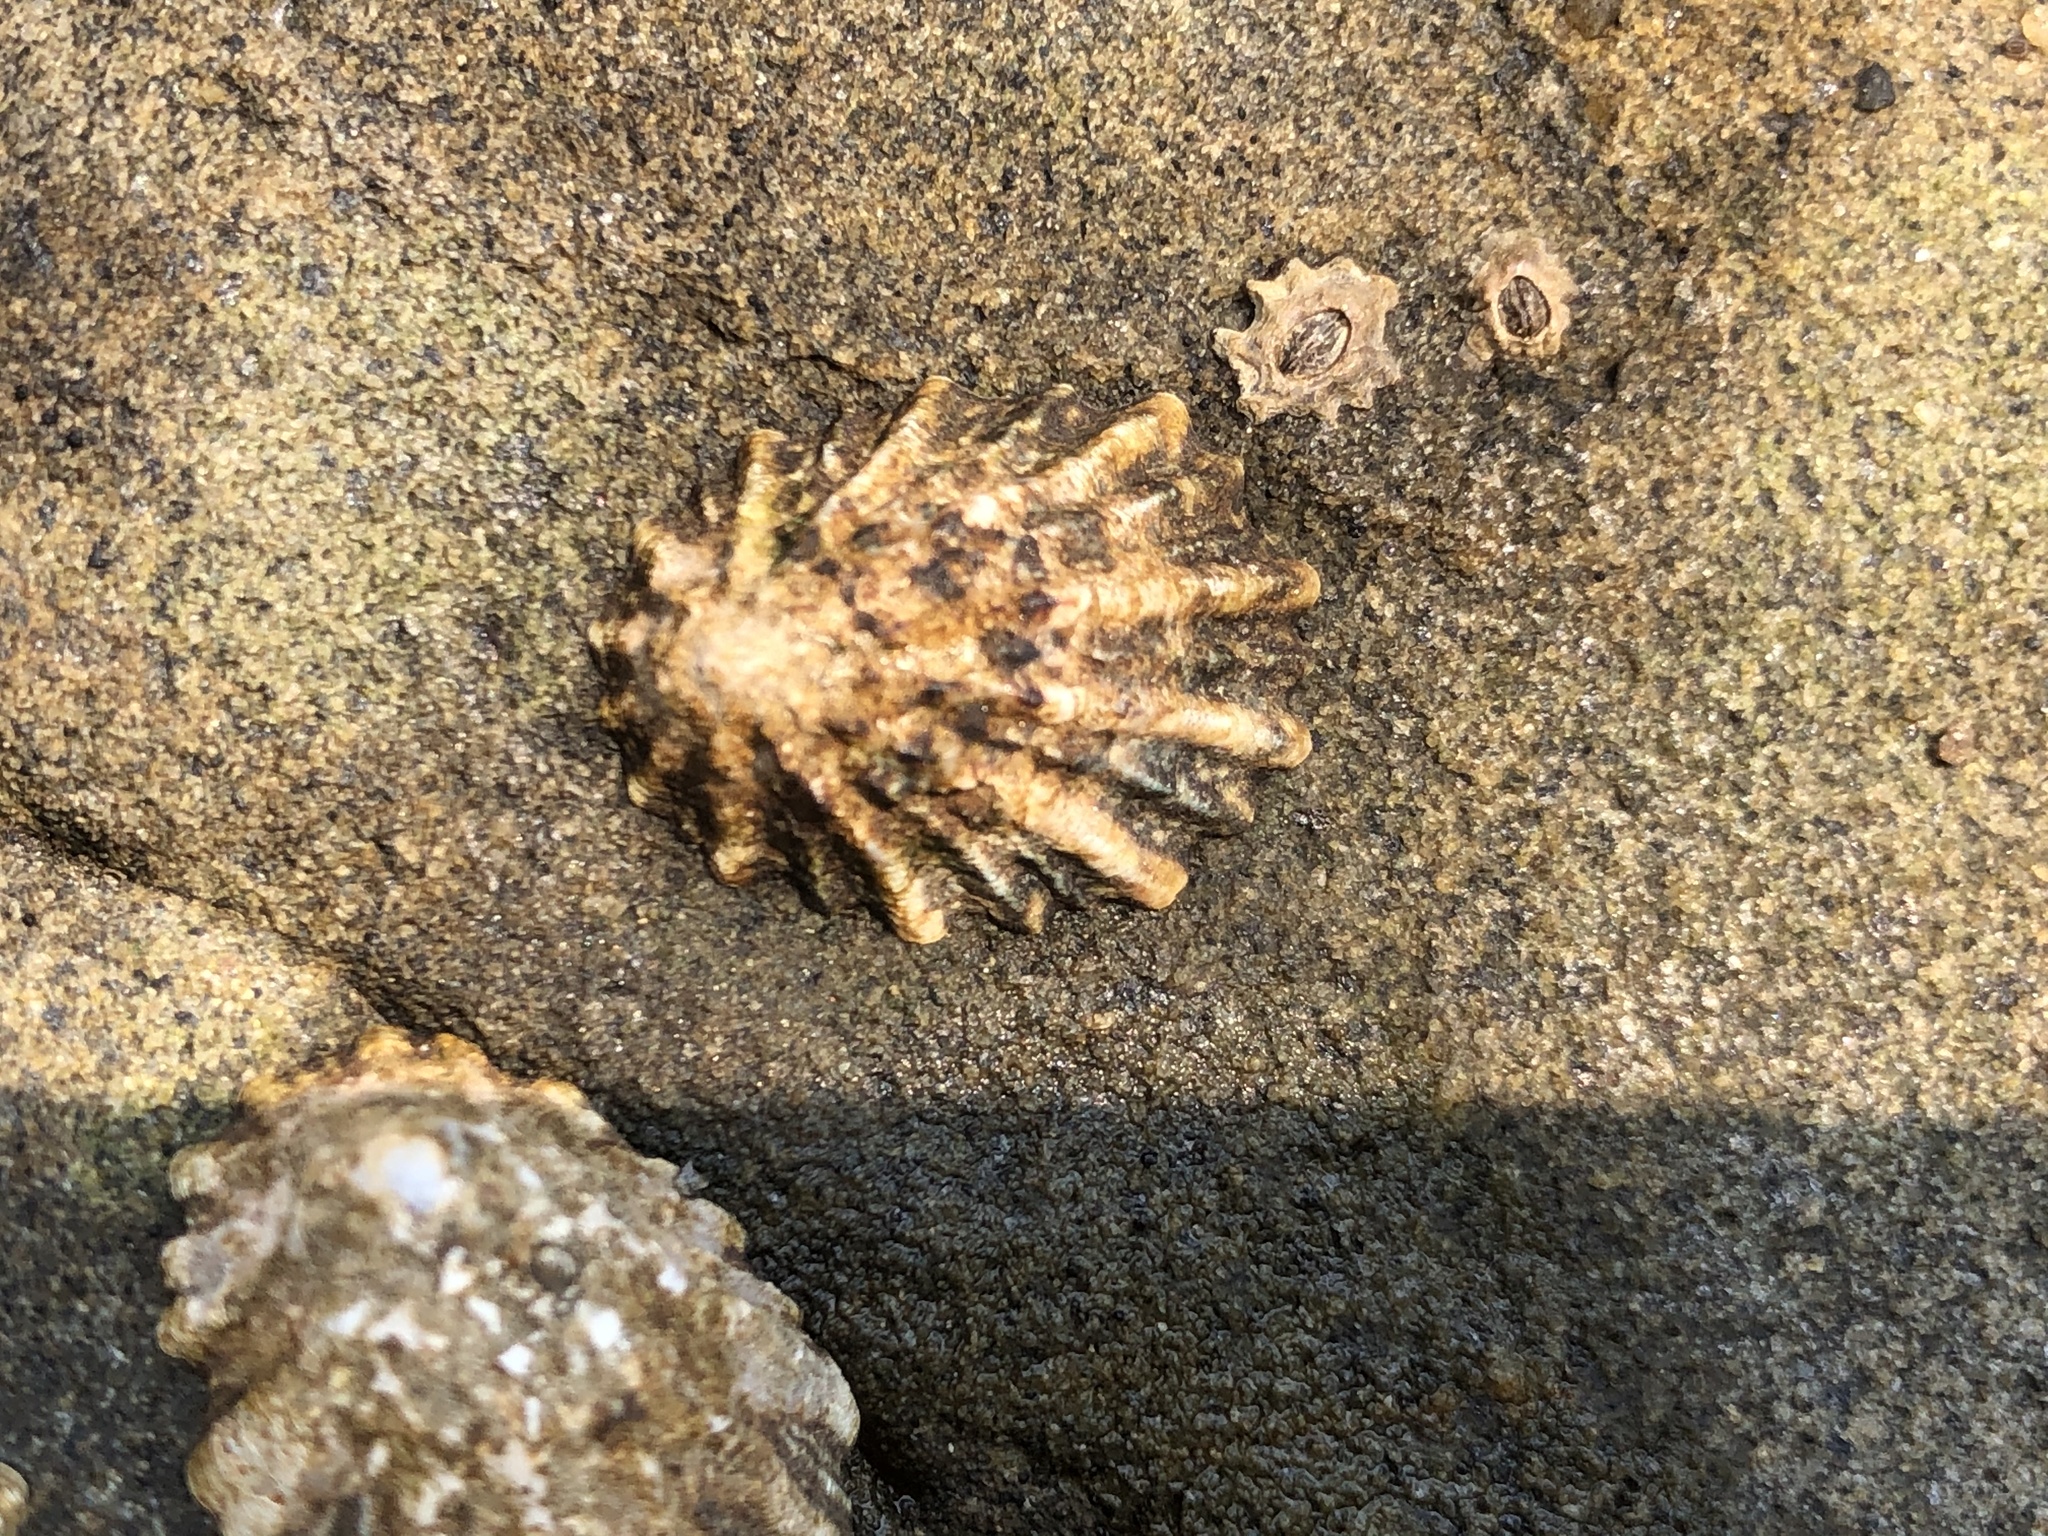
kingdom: Animalia
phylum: Mollusca
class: Gastropoda
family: Lottiidae
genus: Lottia
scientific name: Lottia scabra
